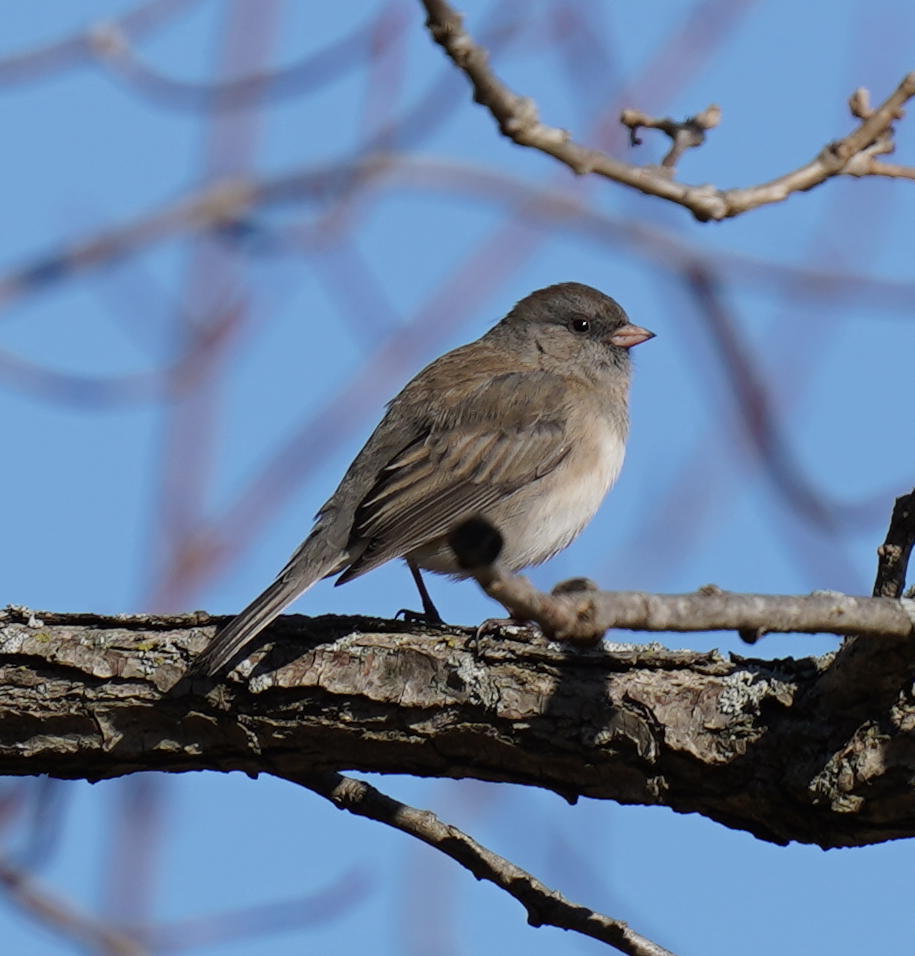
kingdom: Animalia
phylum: Chordata
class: Aves
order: Passeriformes
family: Passerellidae
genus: Junco
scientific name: Junco hyemalis
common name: Dark-eyed junco
